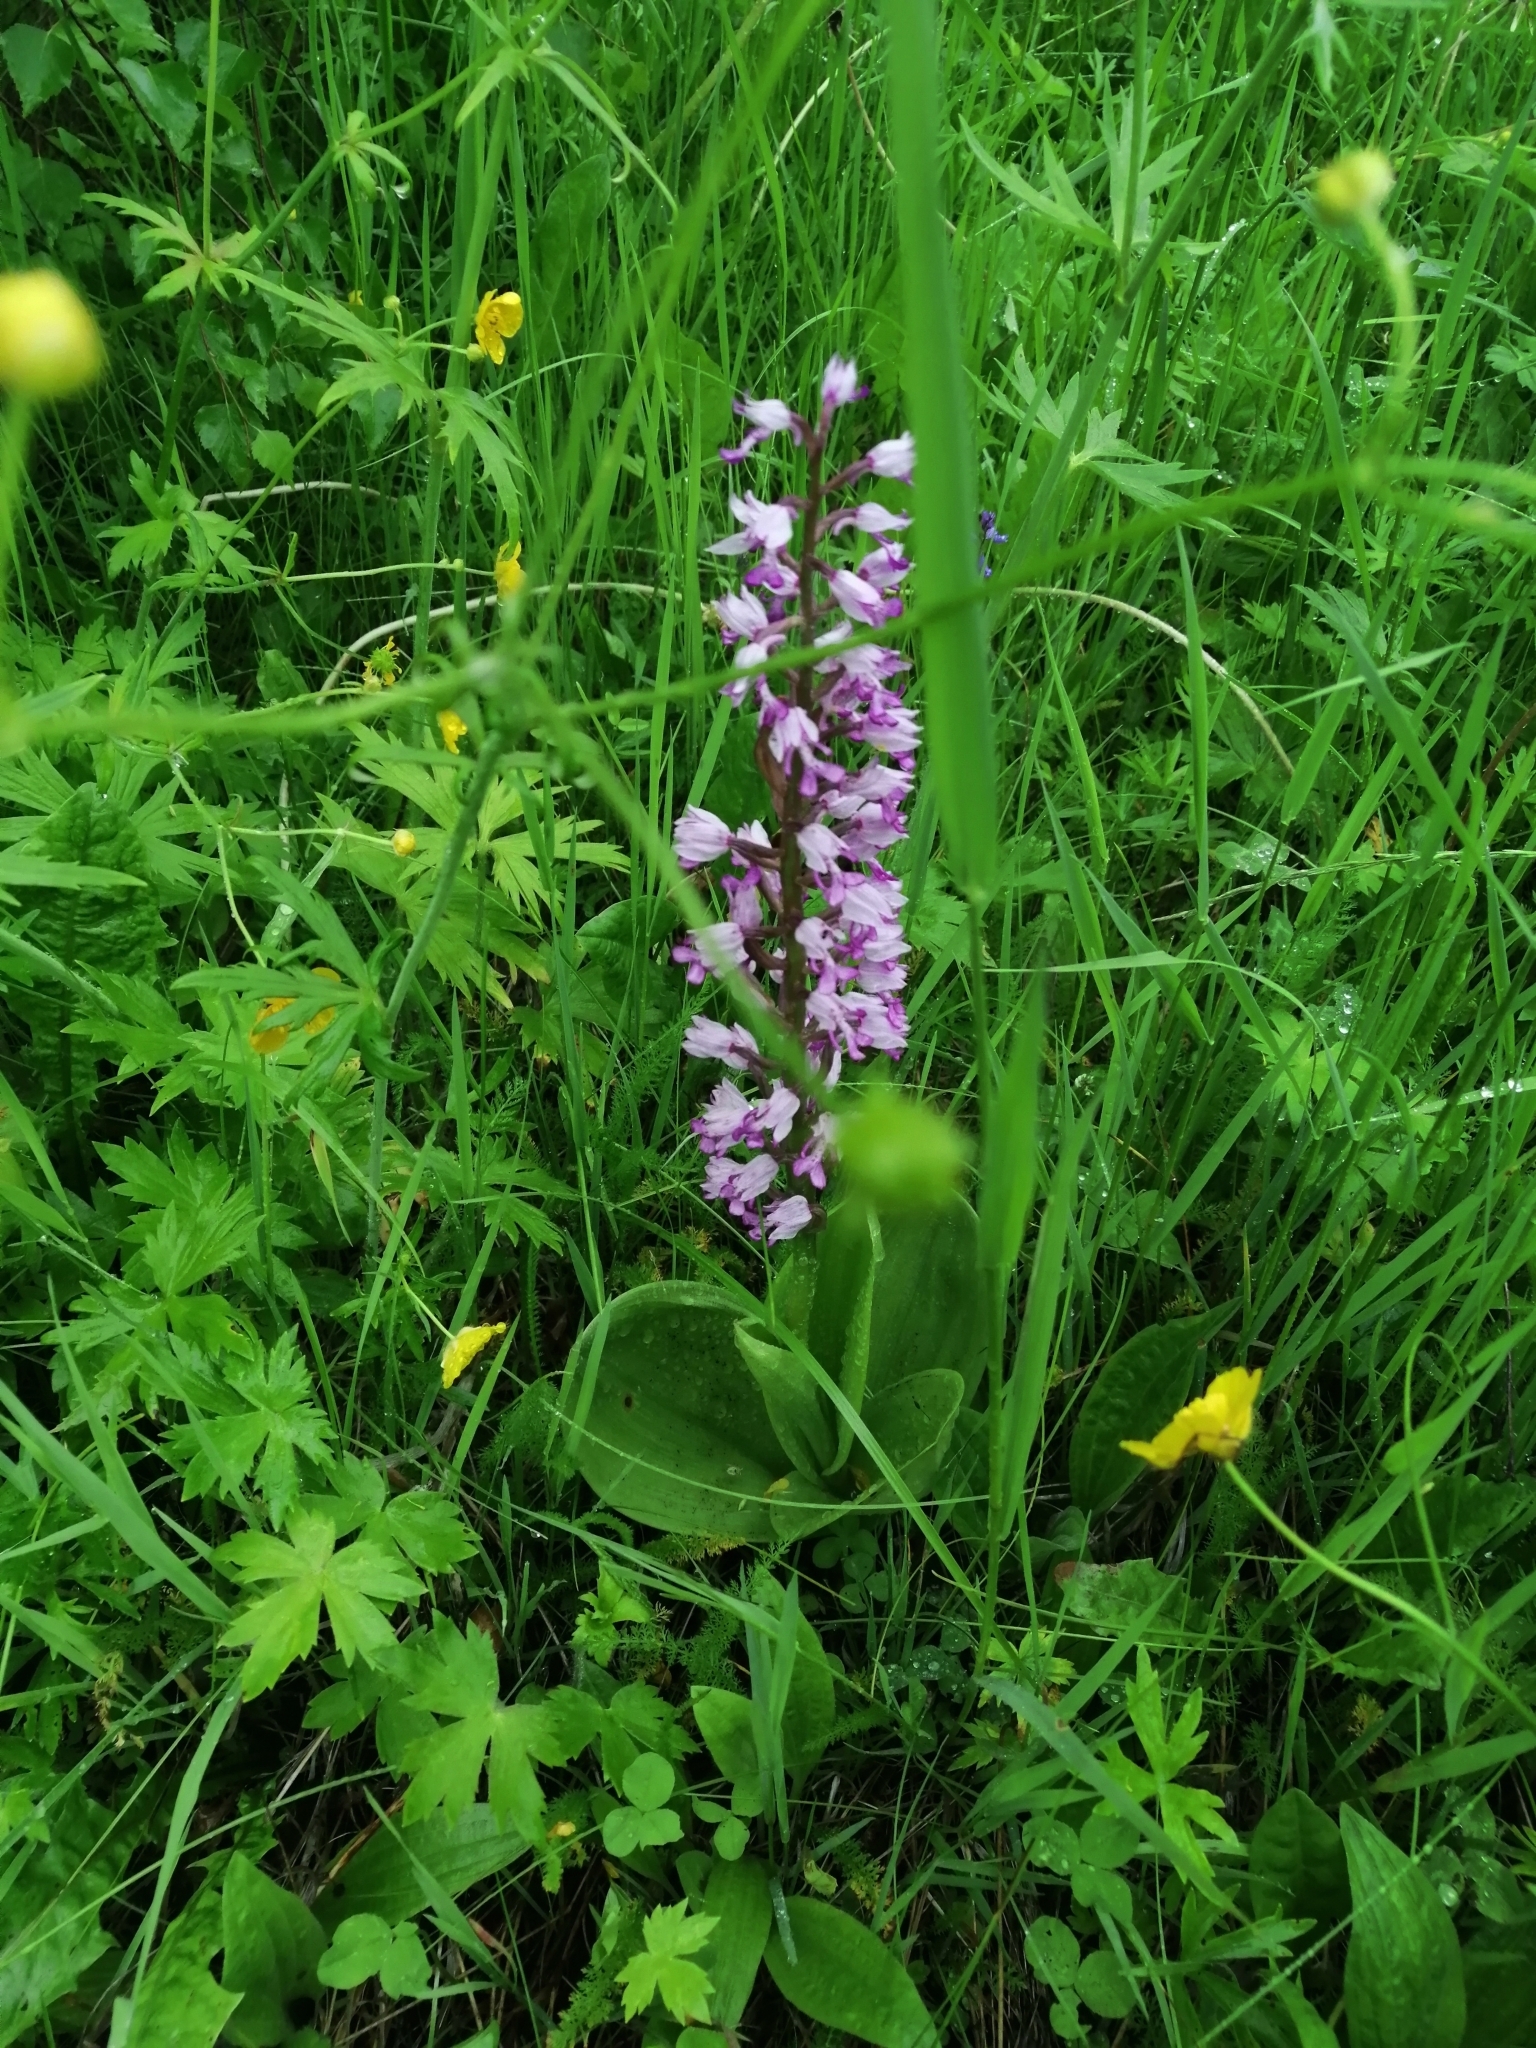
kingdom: Plantae
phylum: Tracheophyta
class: Liliopsida
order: Asparagales
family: Orchidaceae
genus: Orchis
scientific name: Orchis militaris
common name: Military orchid
